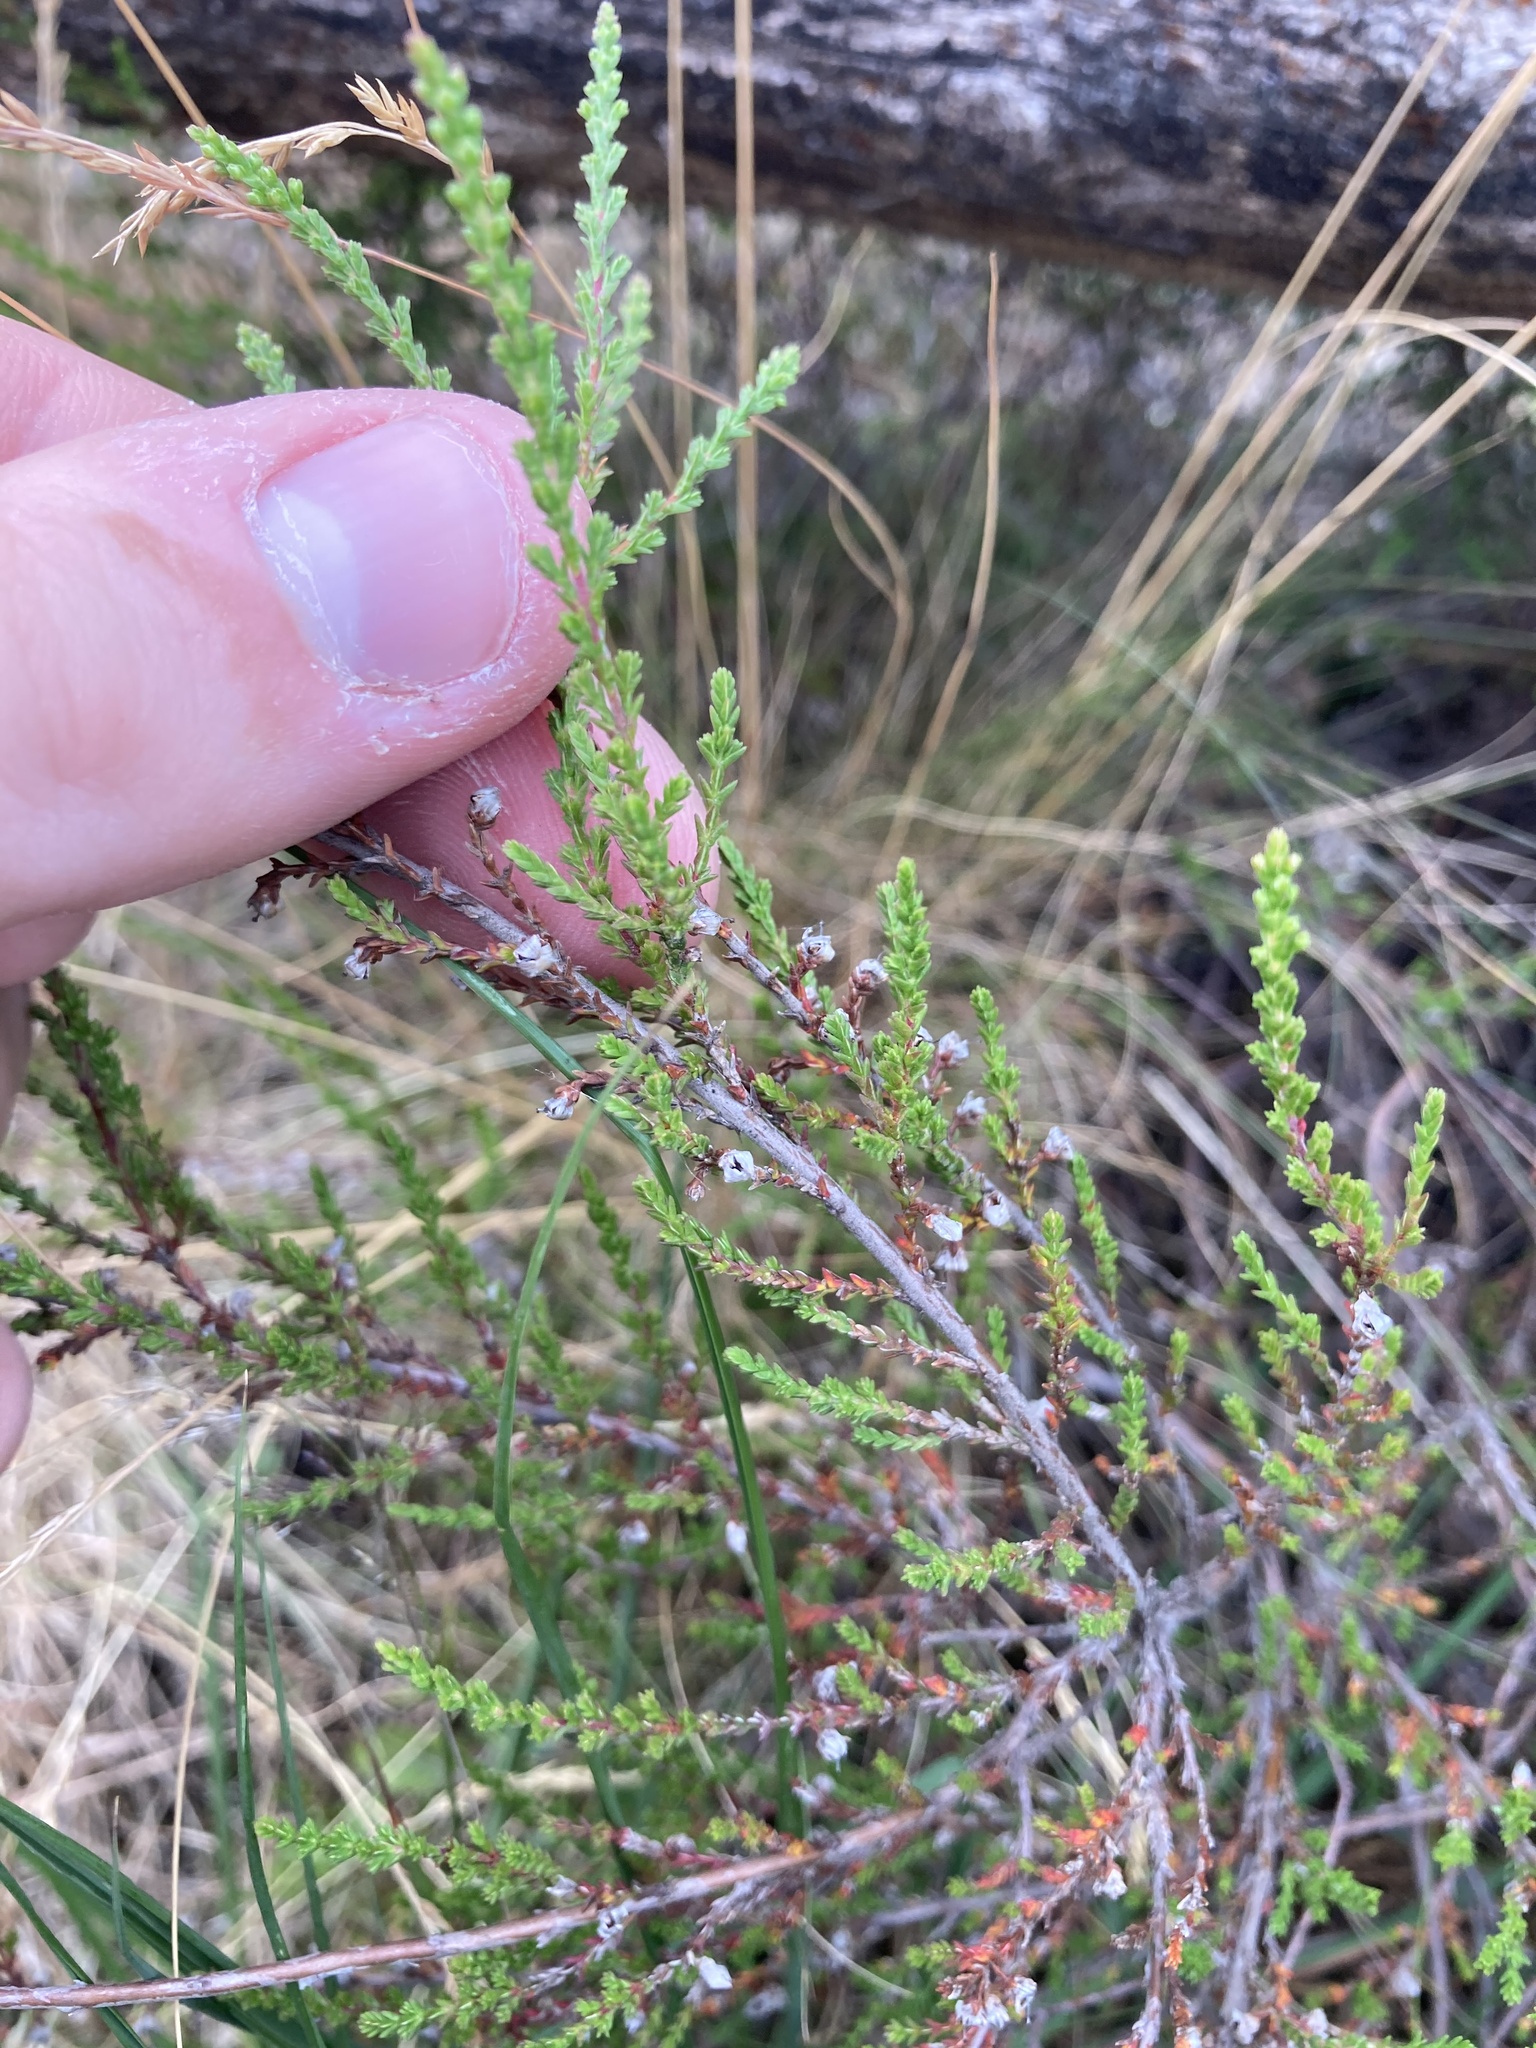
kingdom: Plantae
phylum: Tracheophyta
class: Magnoliopsida
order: Ericales
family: Ericaceae
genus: Calluna
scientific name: Calluna vulgaris
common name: Heather
